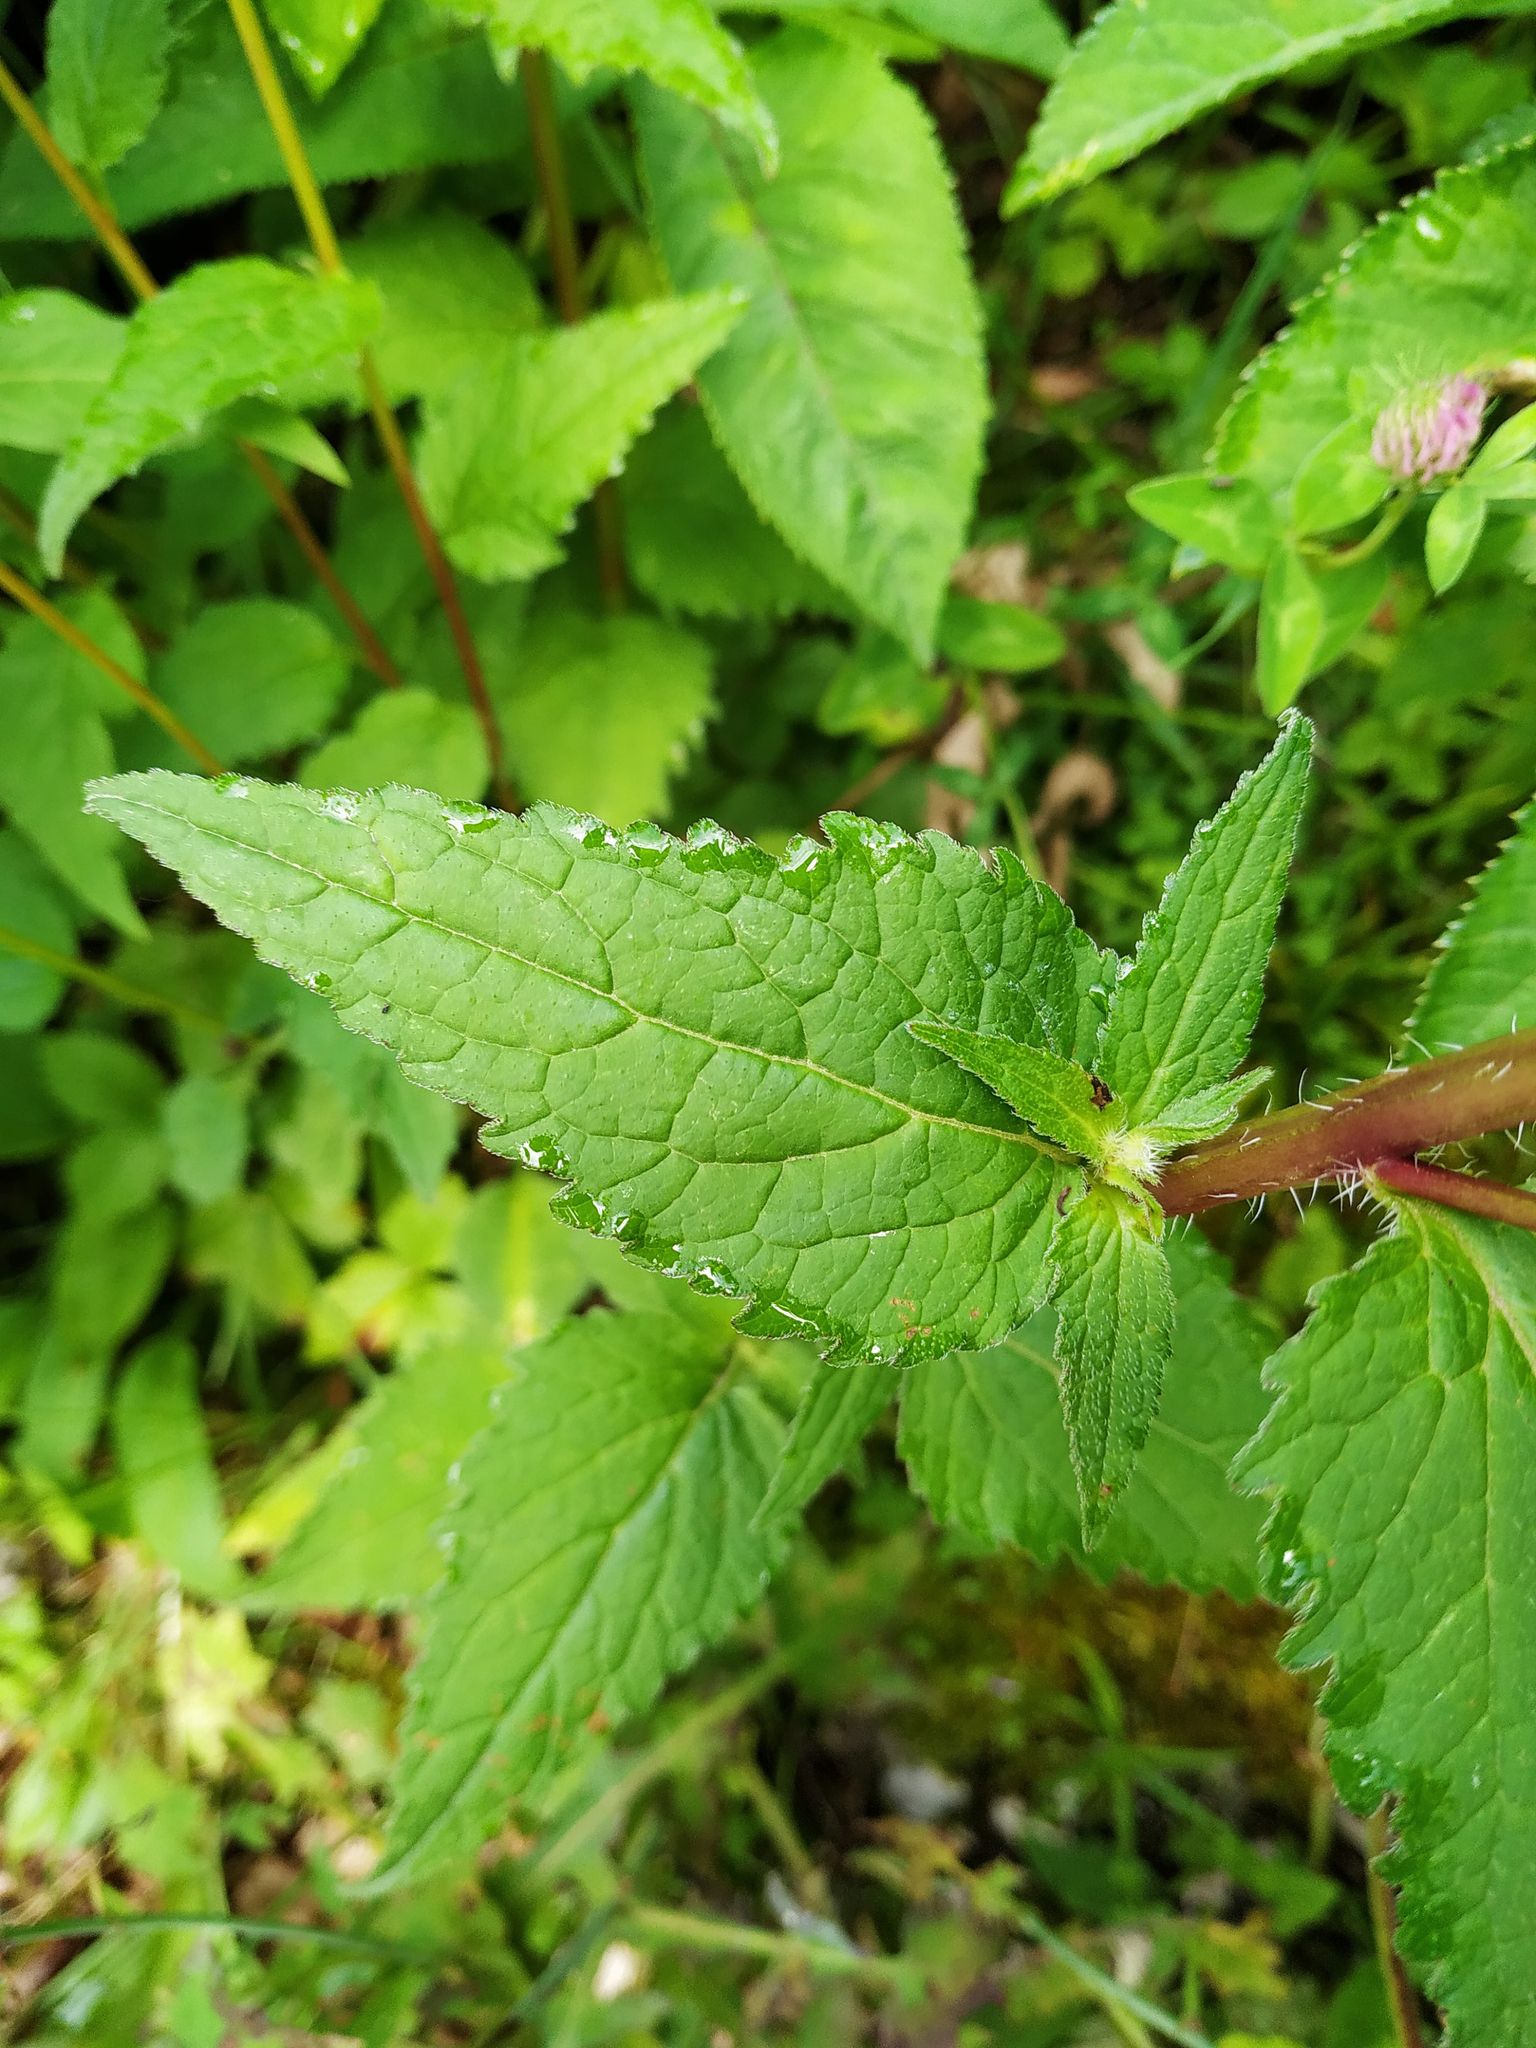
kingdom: Plantae
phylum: Tracheophyta
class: Magnoliopsida
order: Asterales
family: Campanulaceae
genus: Campanula
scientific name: Campanula trachelium
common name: Nettle-leaved bellflower
